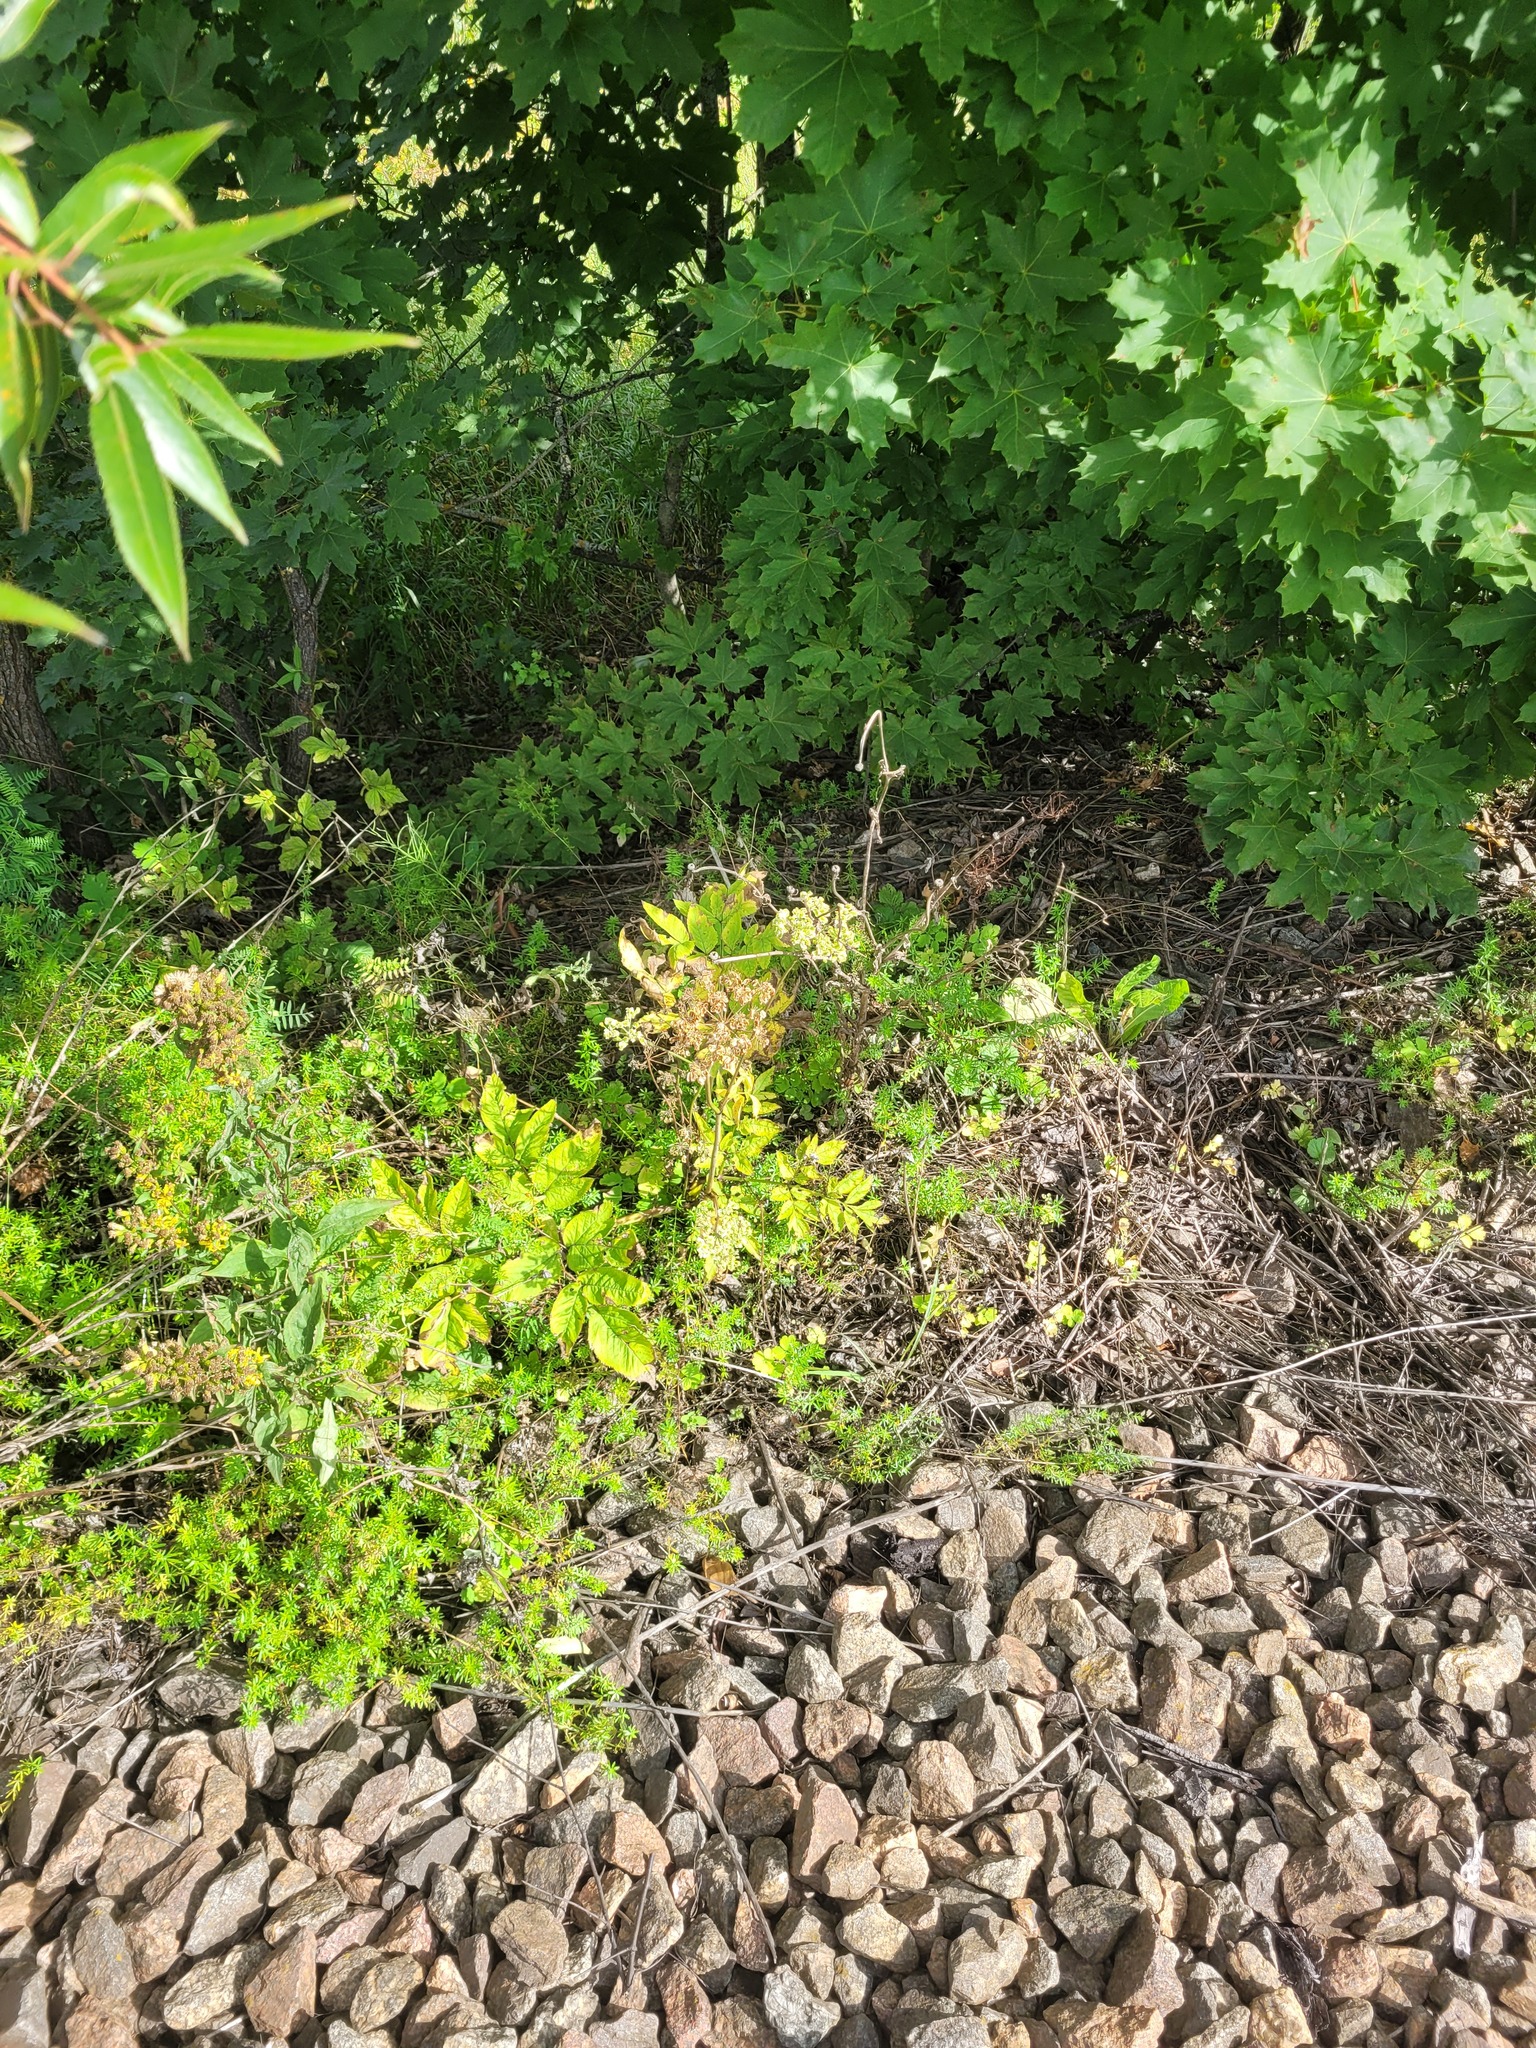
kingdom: Plantae
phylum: Tracheophyta
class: Magnoliopsida
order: Apiales
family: Apiaceae
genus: Angelica
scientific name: Angelica sylvestris
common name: Wild angelica
